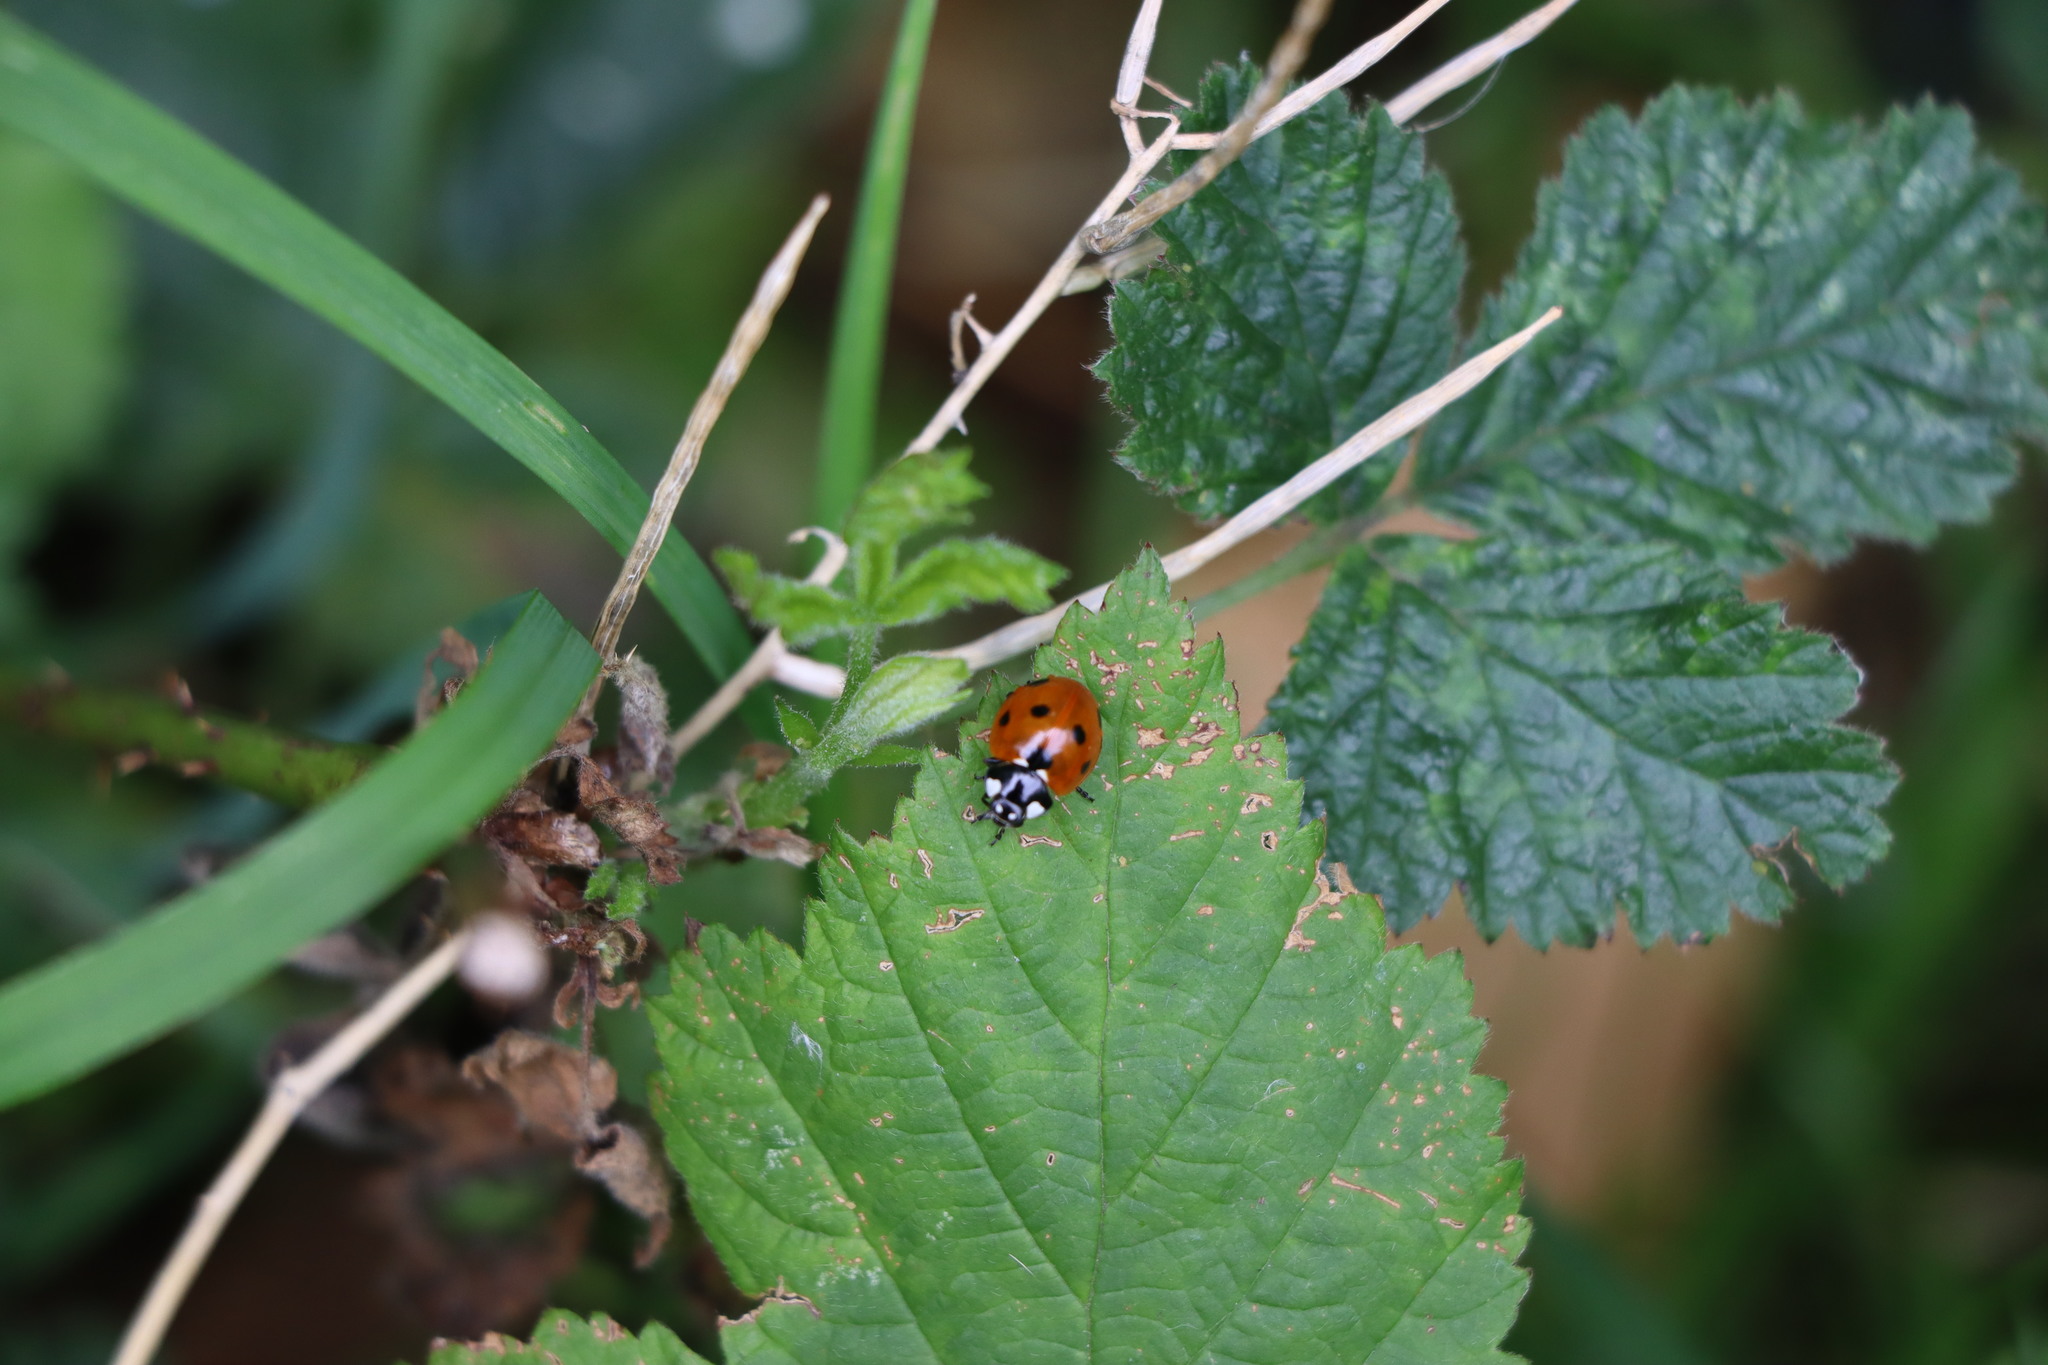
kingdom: Animalia
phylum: Arthropoda
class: Insecta
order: Coleoptera
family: Coccinellidae
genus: Coccinella
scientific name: Coccinella septempunctata
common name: Sevenspotted lady beetle
